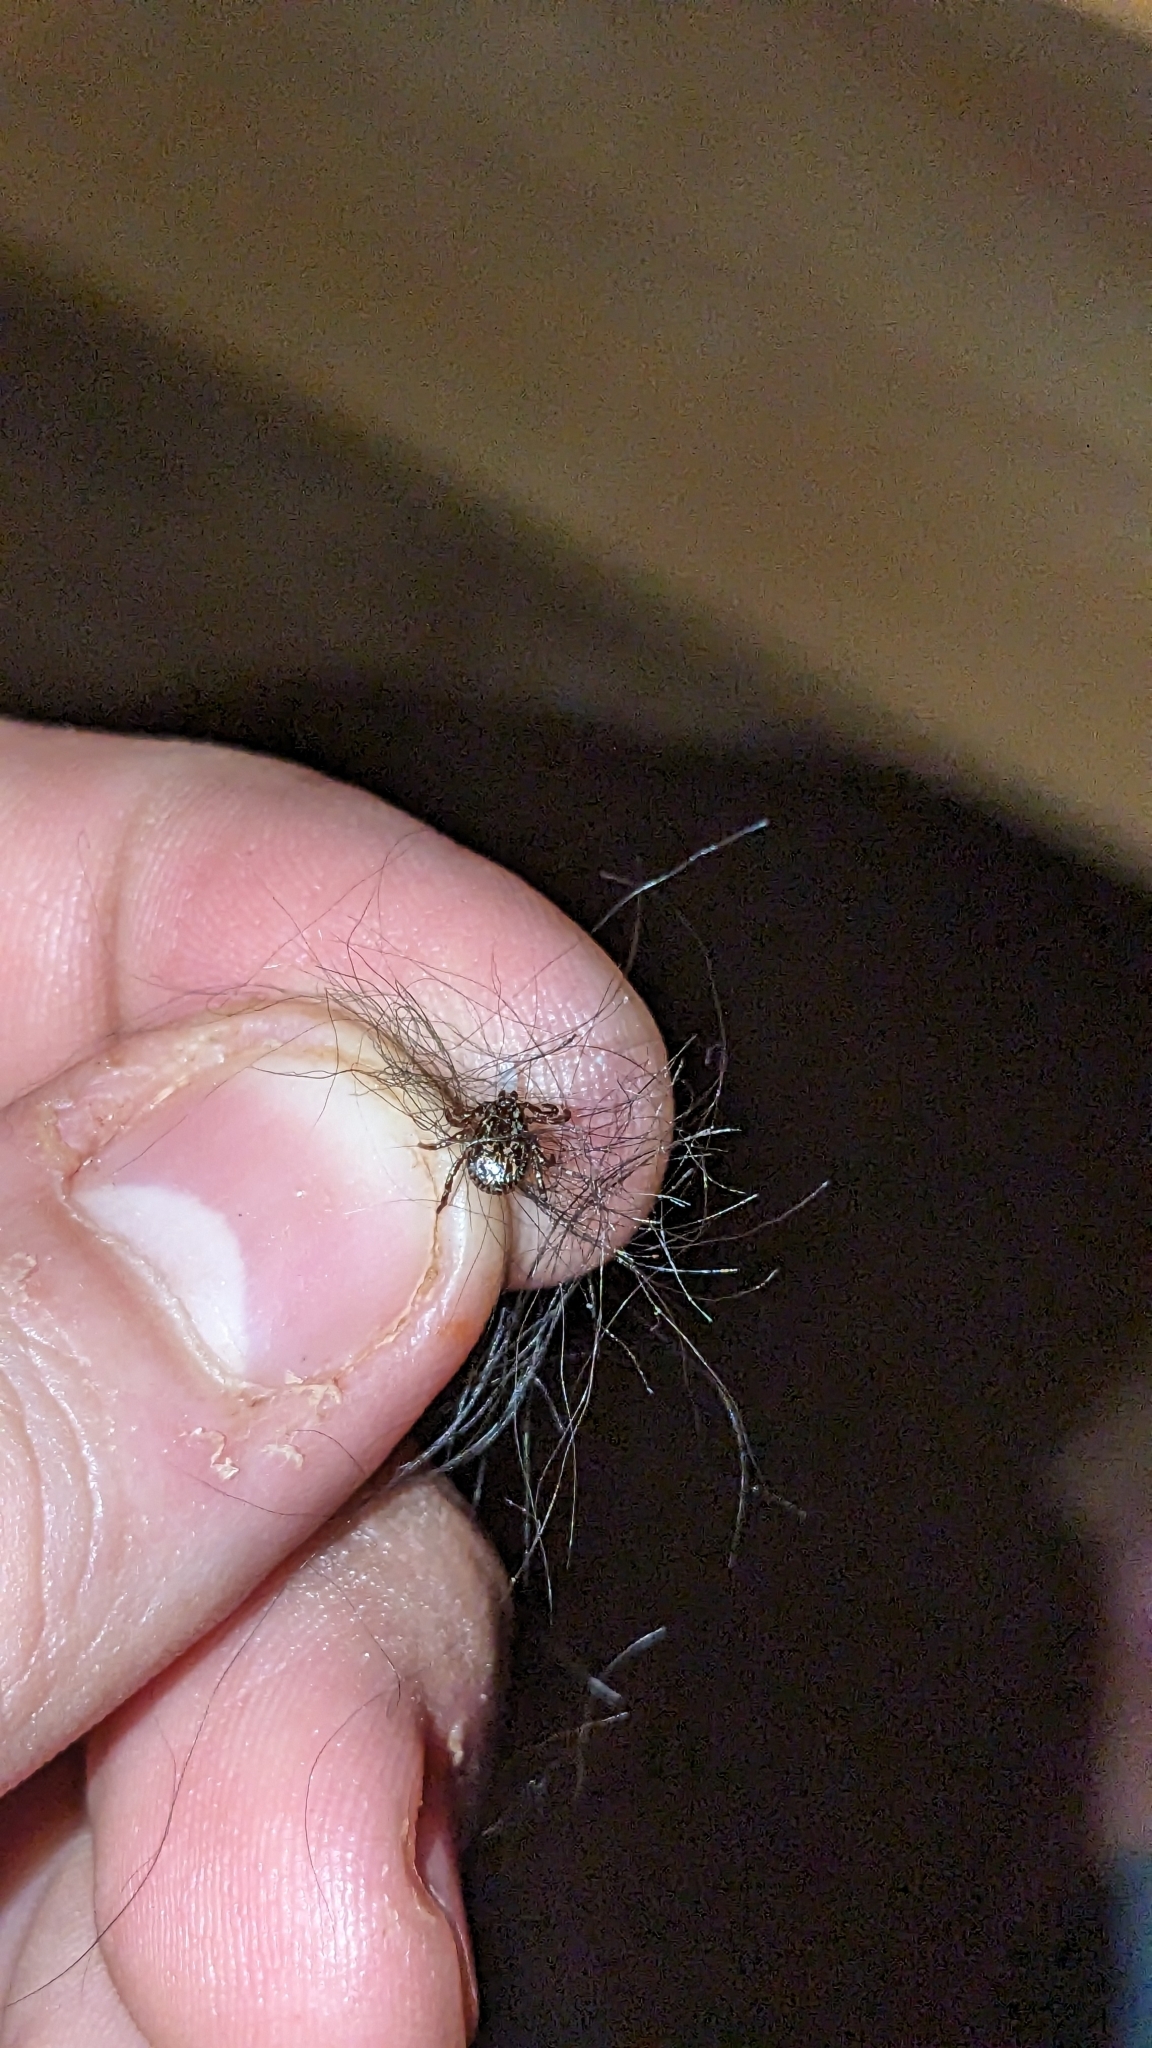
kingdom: Animalia
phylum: Arthropoda
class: Arachnida
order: Ixodida
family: Ixodidae
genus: Dermacentor
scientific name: Dermacentor variabilis
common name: American dog tick
